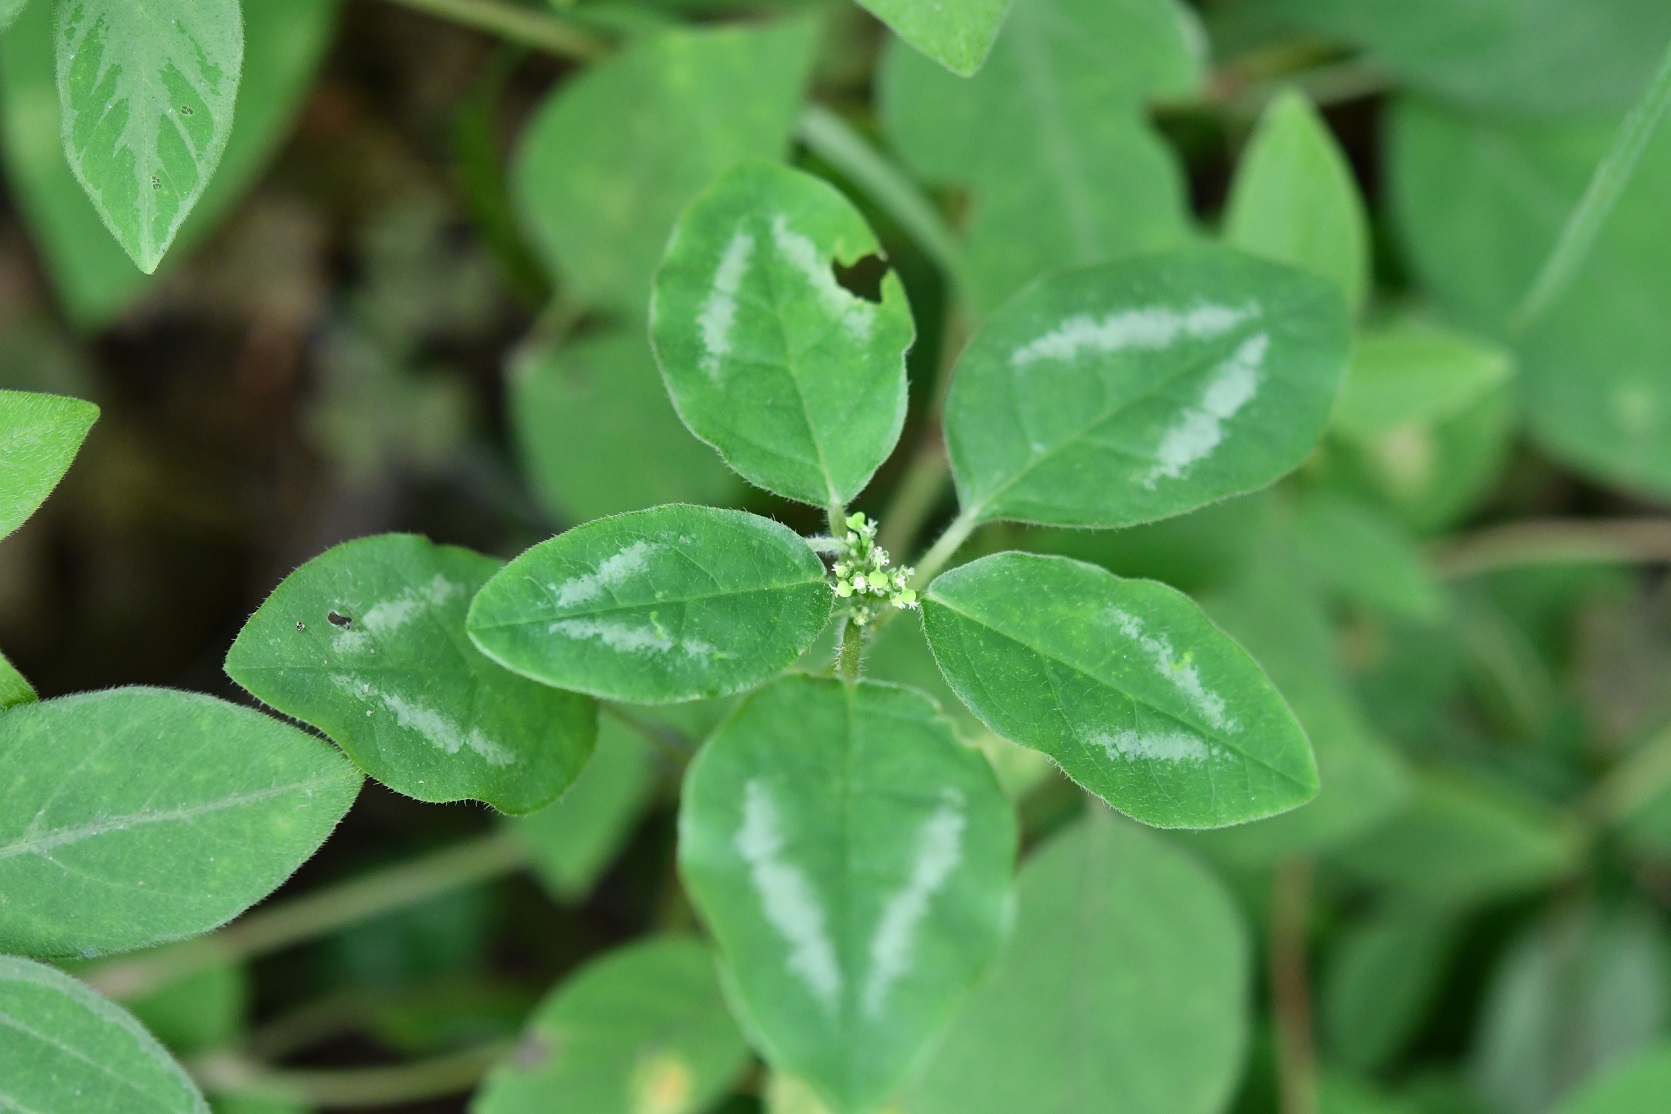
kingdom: Plantae
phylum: Tracheophyta
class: Magnoliopsida
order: Malpighiales
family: Euphorbiaceae
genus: Euphorbia
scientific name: Euphorbia graminea
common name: Grassleaf spurge
